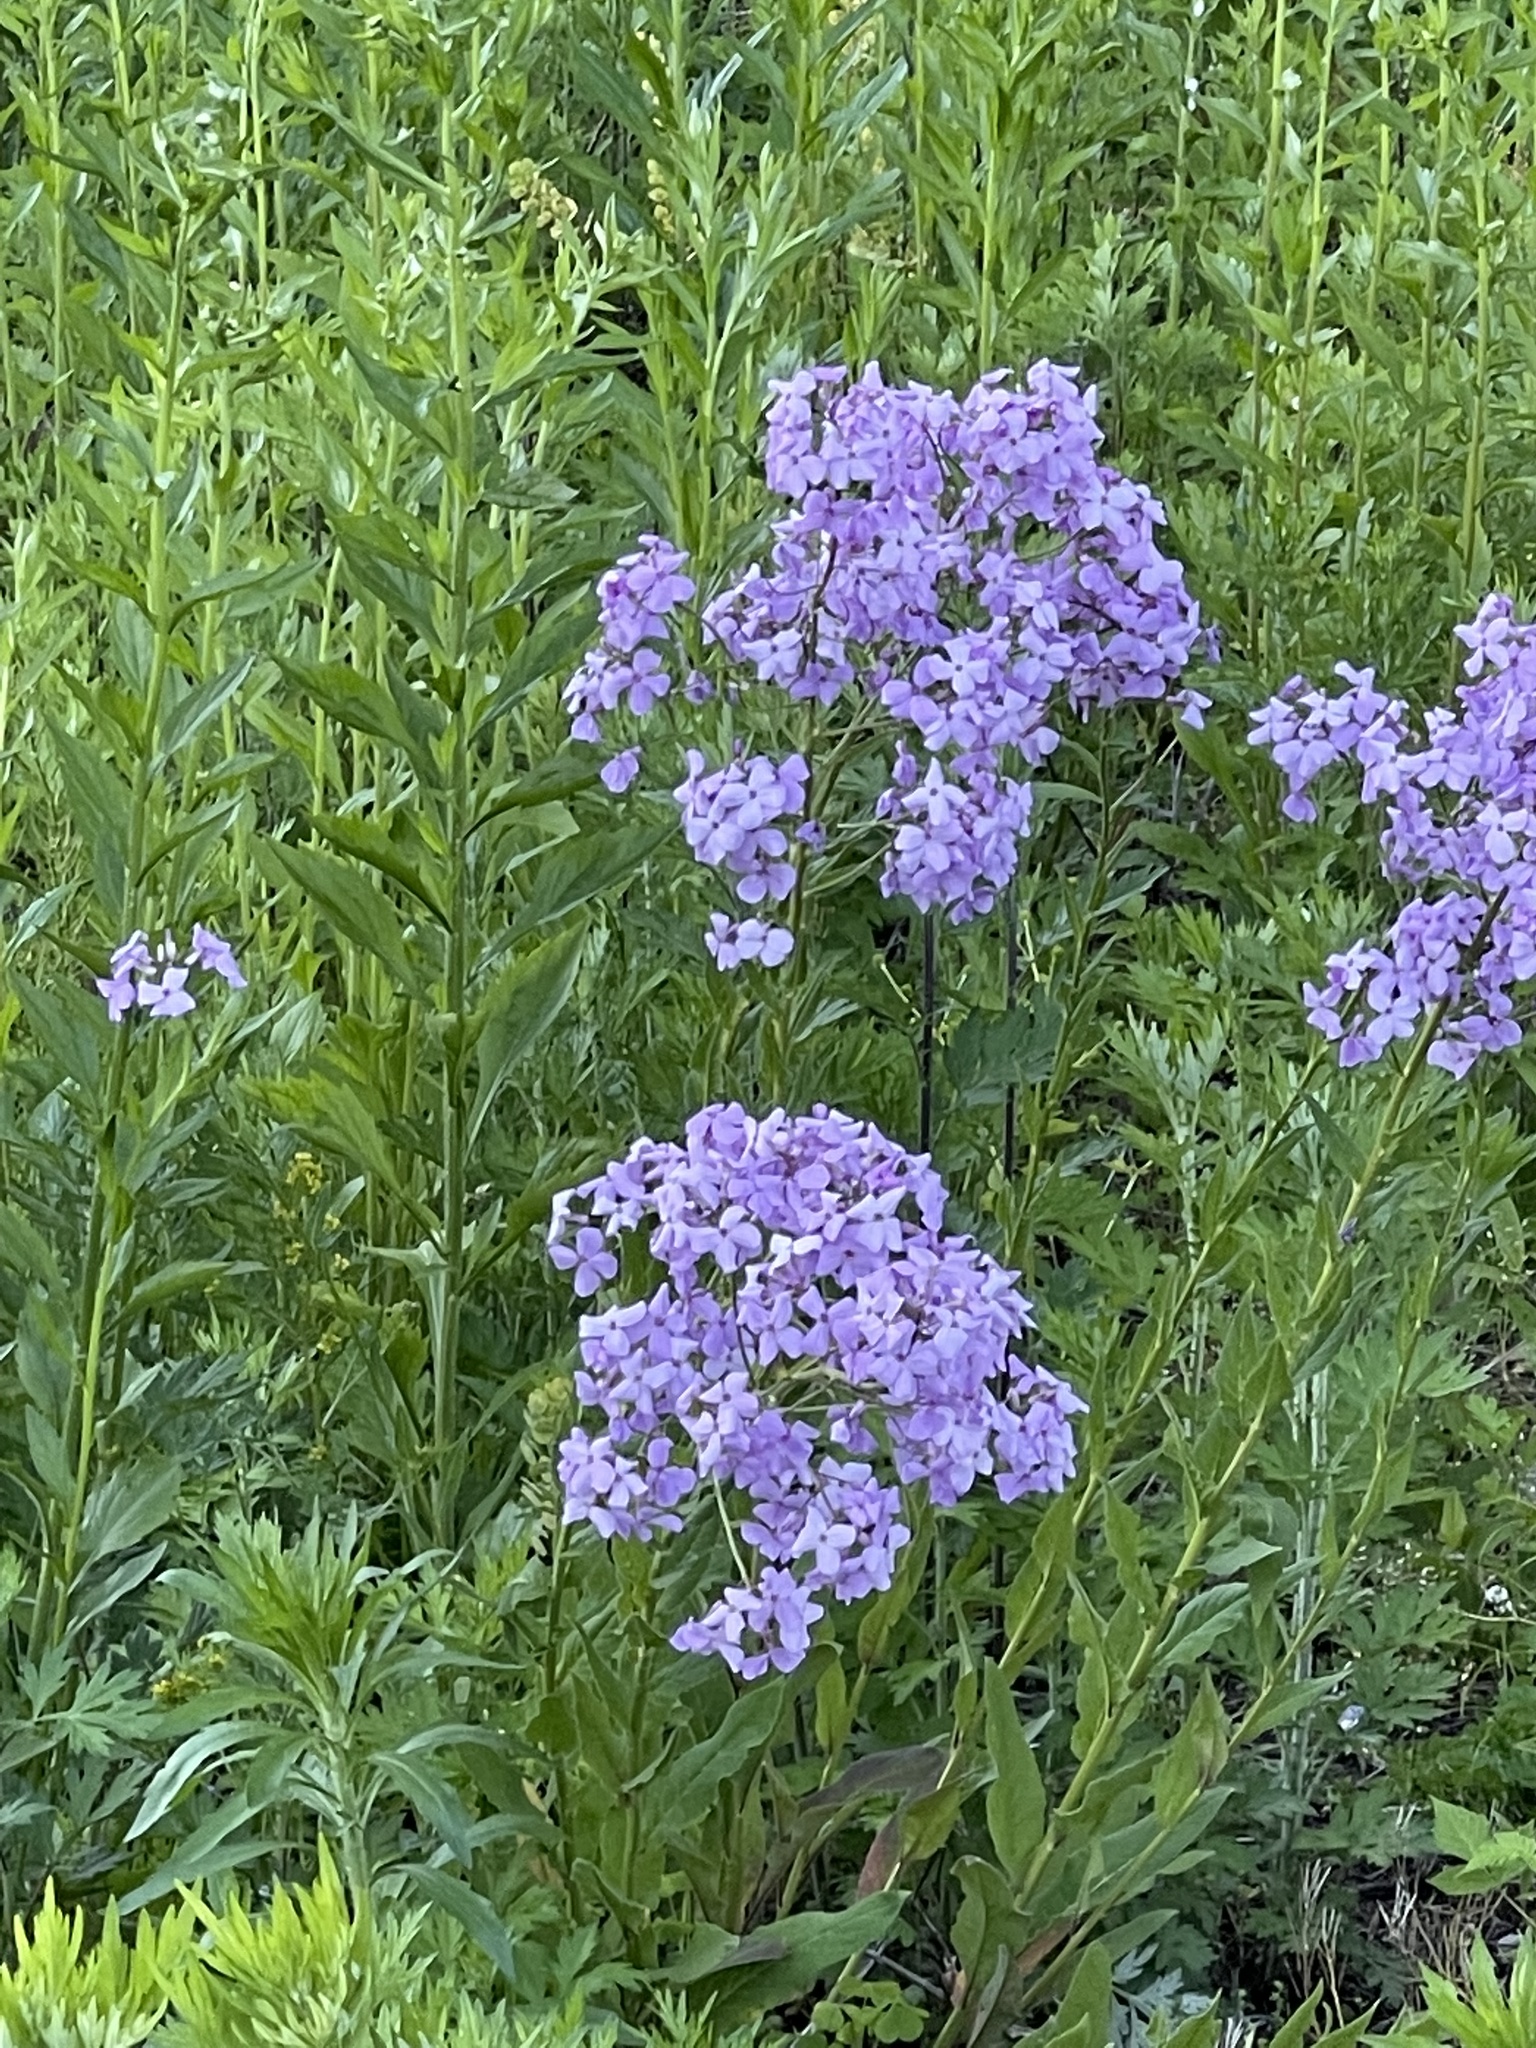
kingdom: Plantae
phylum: Tracheophyta
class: Magnoliopsida
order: Brassicales
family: Brassicaceae
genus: Hesperis
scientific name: Hesperis matronalis
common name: Dame's-violet
